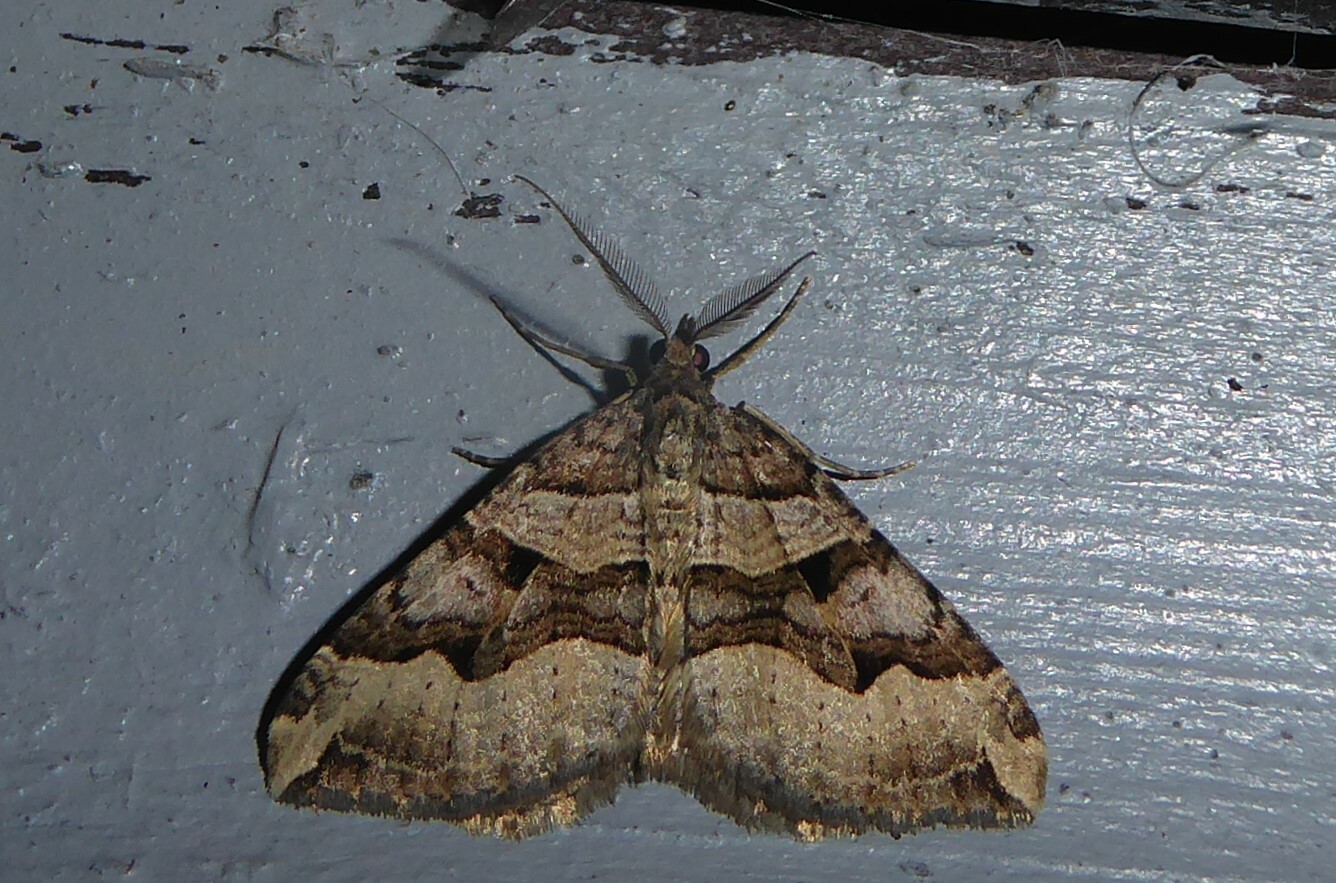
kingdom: Animalia
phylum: Arthropoda
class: Insecta
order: Lepidoptera
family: Geometridae
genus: Xanthorhoe
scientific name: Xanthorhoe semifissata
